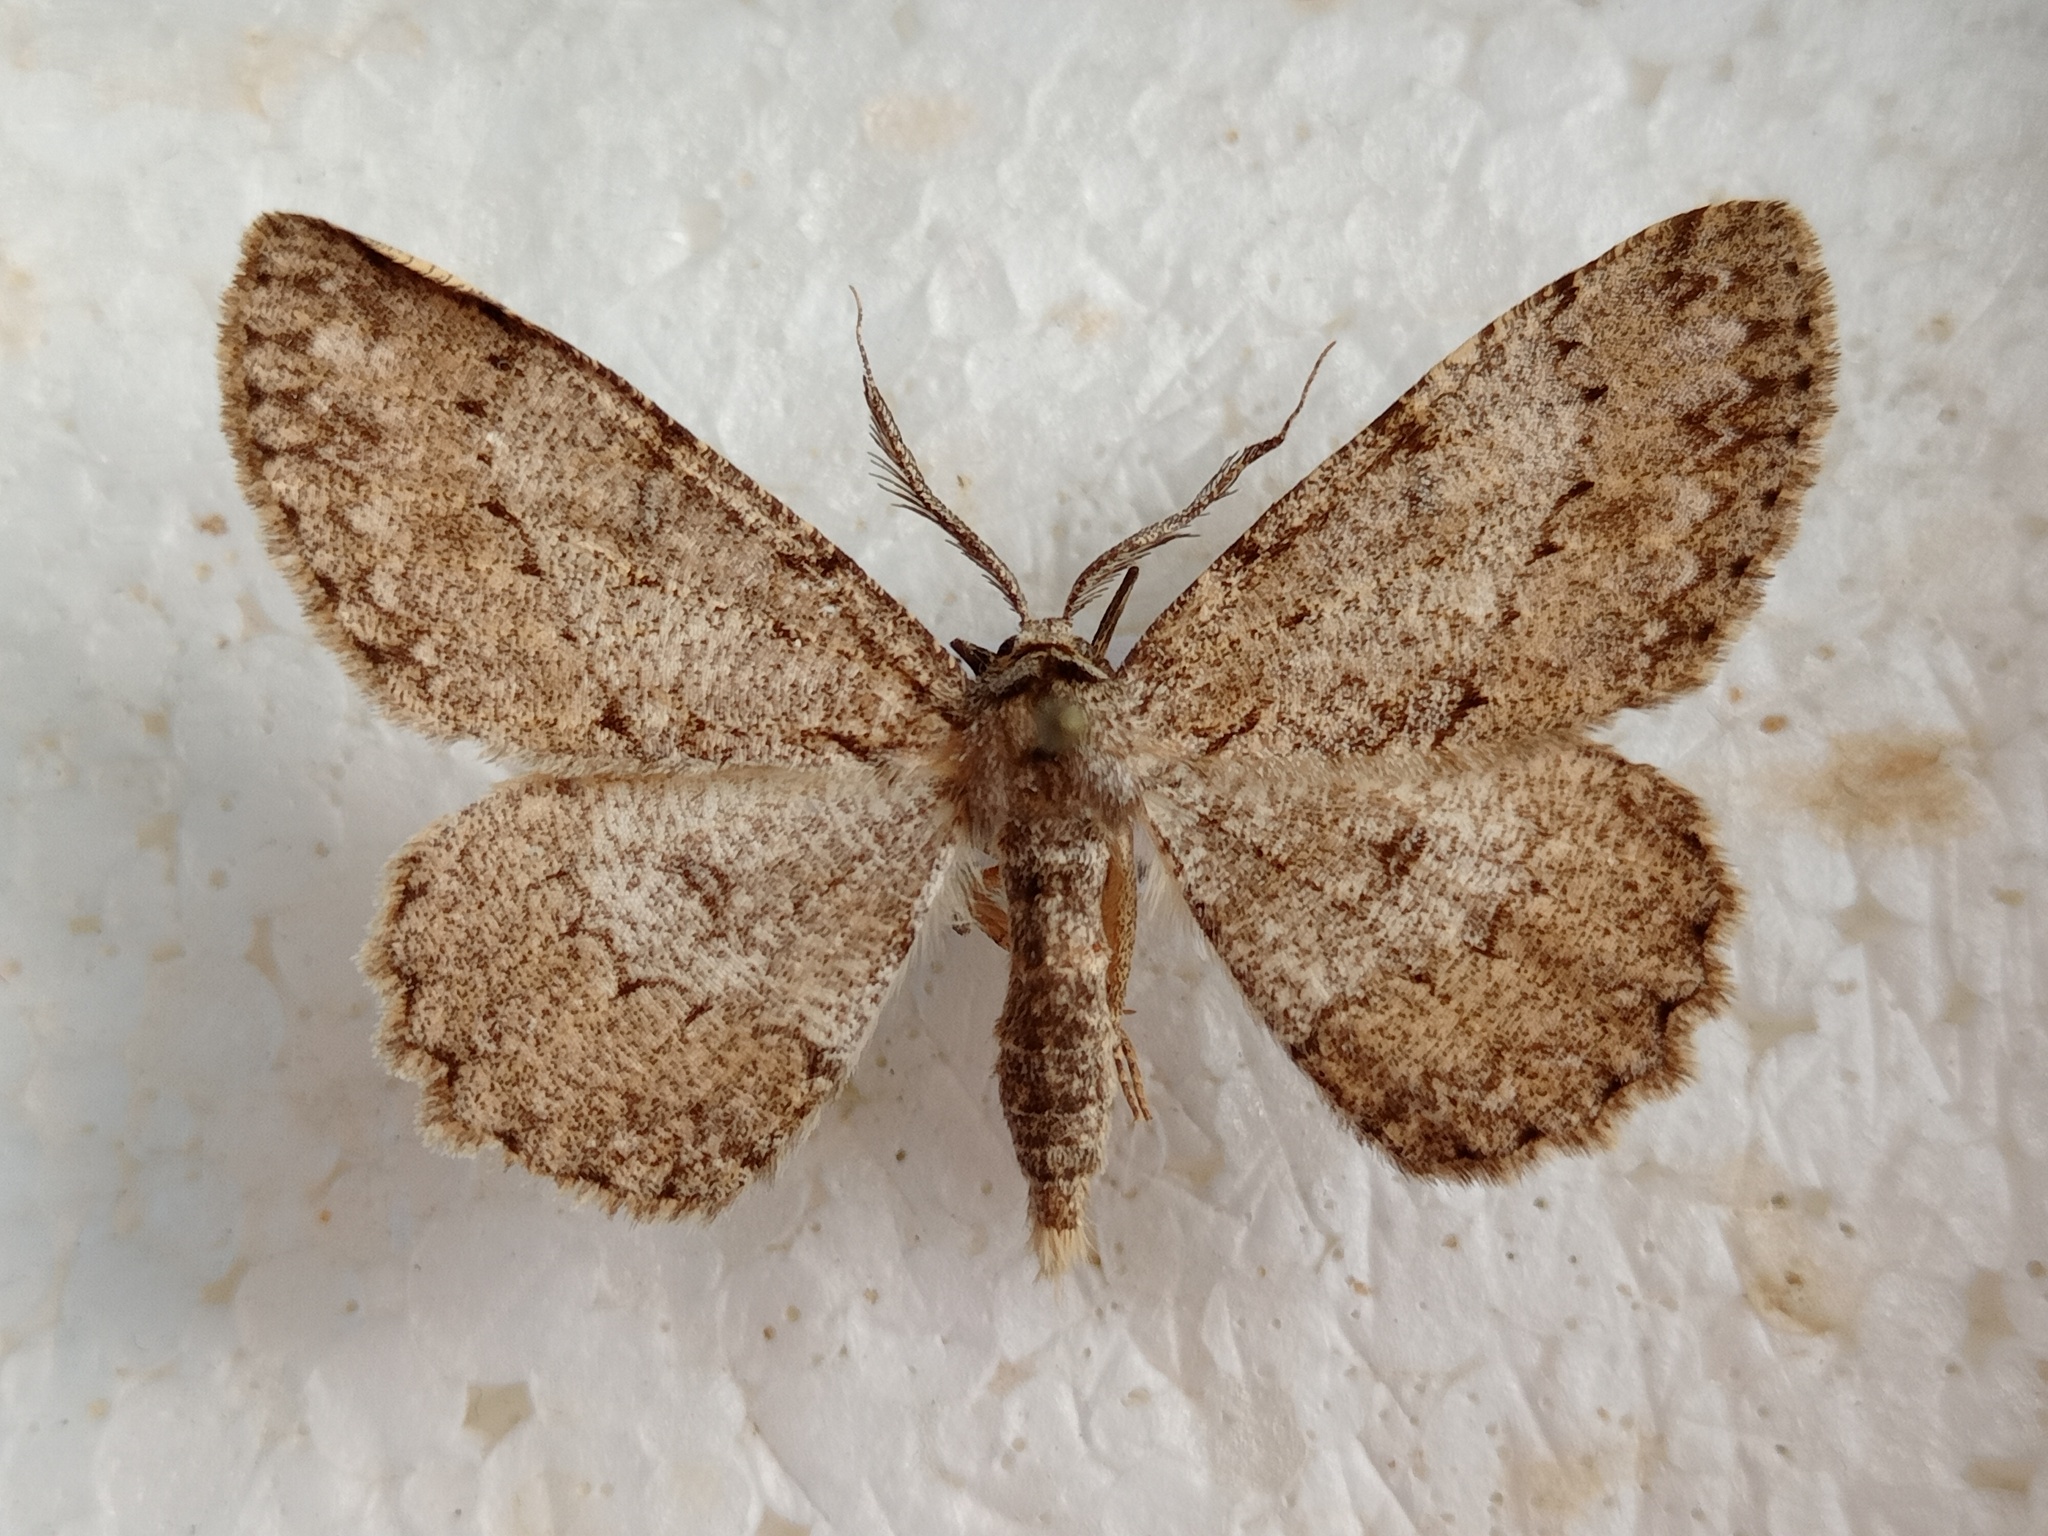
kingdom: Animalia
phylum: Arthropoda
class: Insecta
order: Lepidoptera
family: Geometridae
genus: Hypomecis
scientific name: Hypomecis punctinalis
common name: Pale oak beauty
